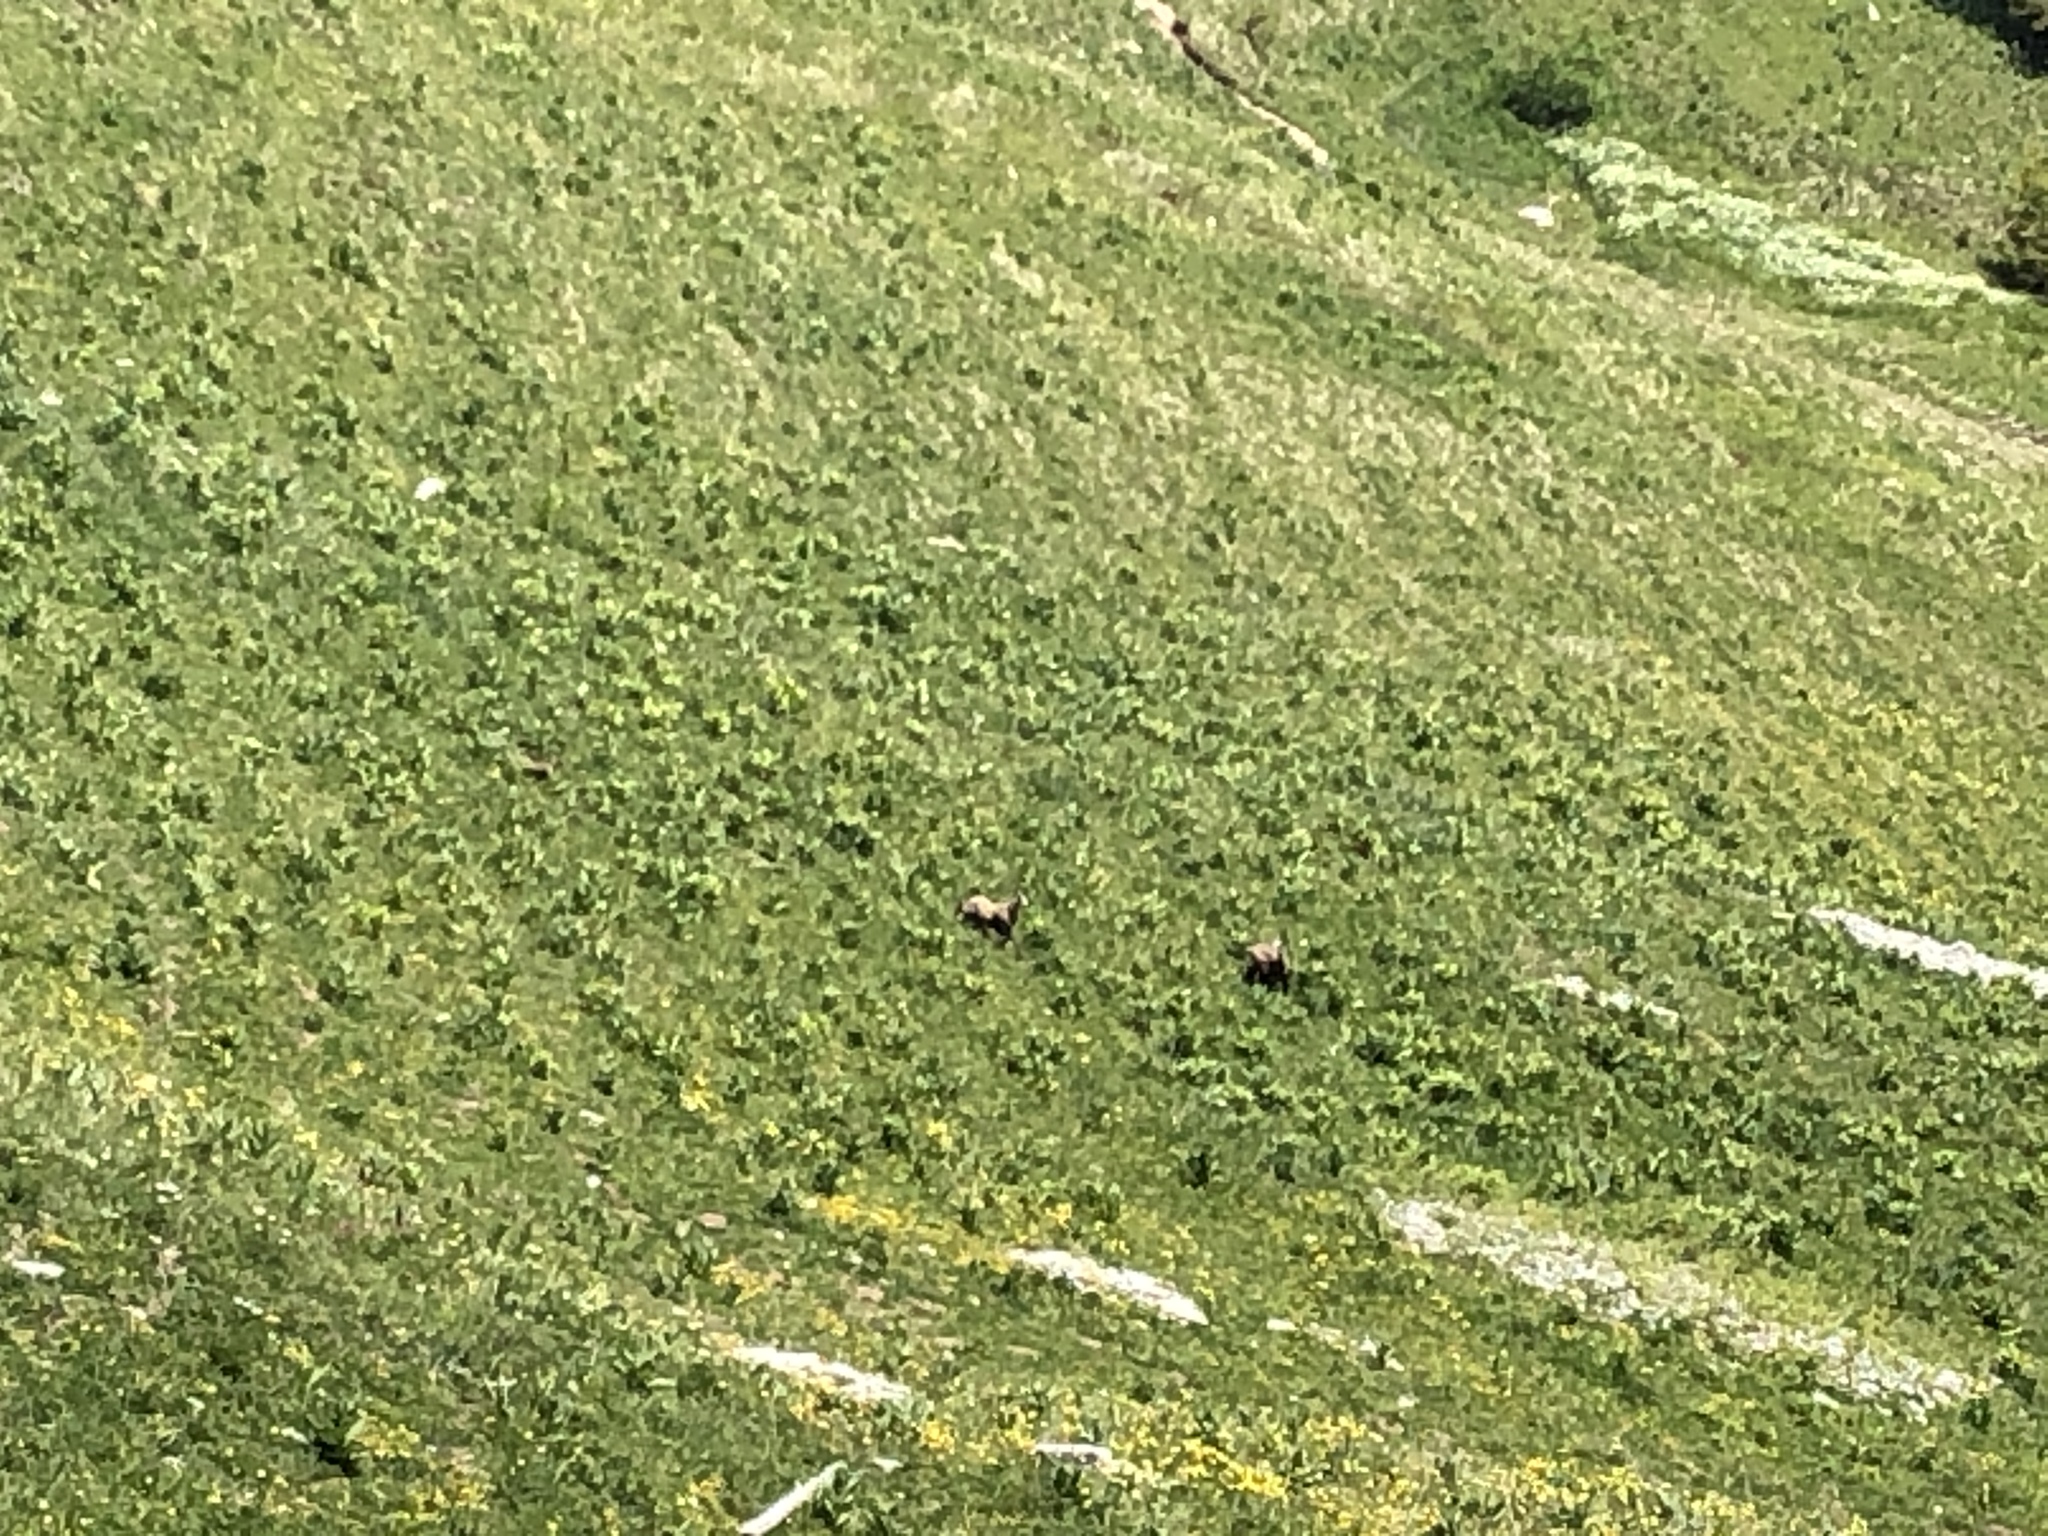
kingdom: Animalia
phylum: Chordata
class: Mammalia
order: Artiodactyla
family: Bovidae
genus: Rupicapra
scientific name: Rupicapra rupicapra
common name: Chamois
